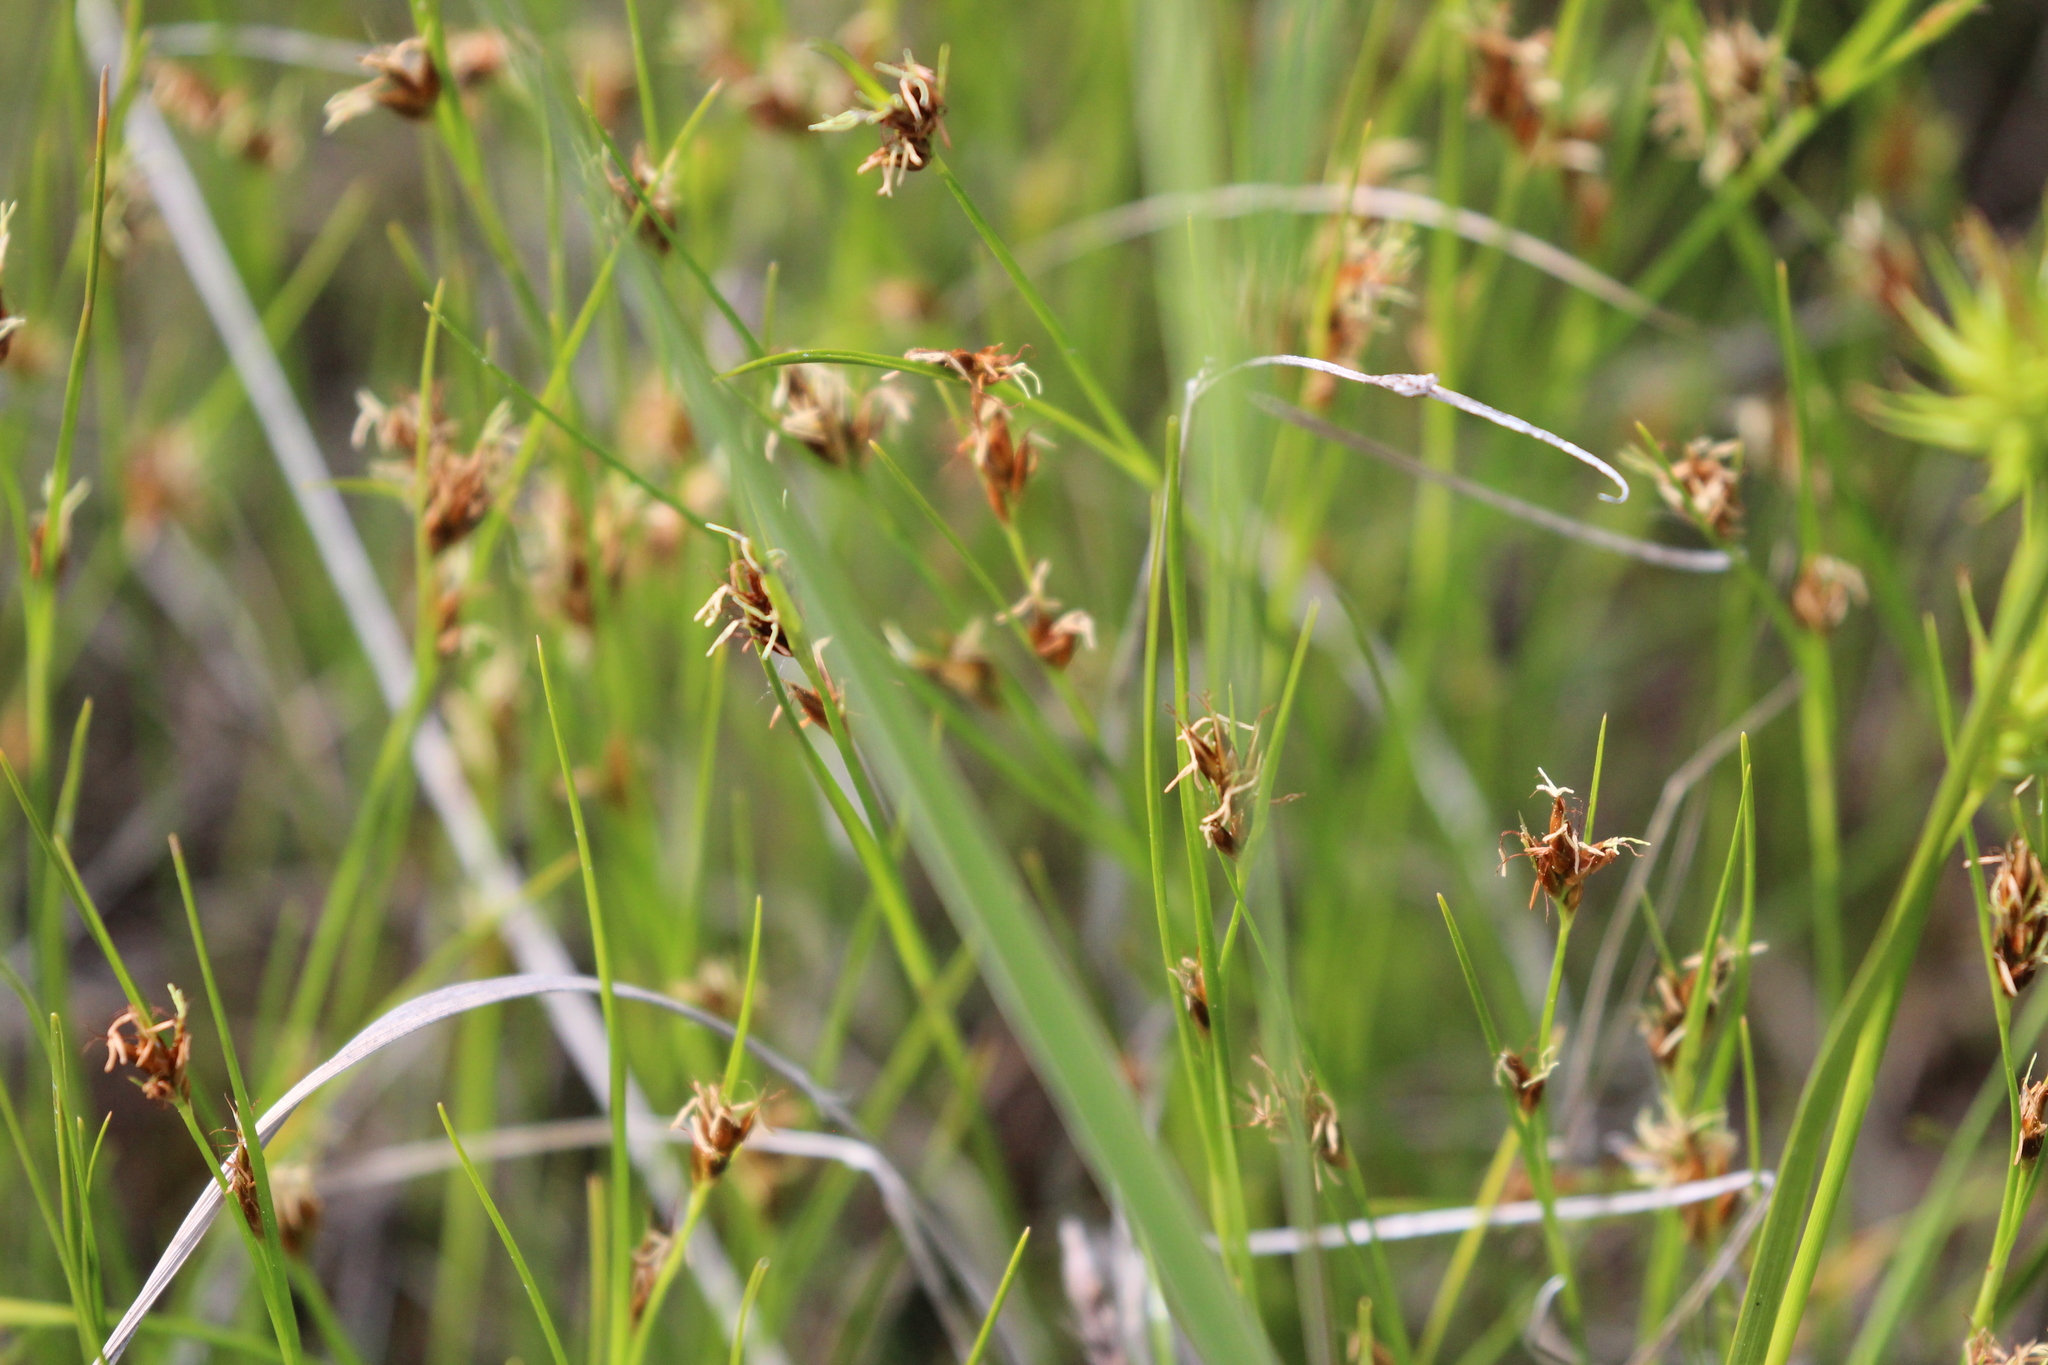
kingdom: Plantae
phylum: Tracheophyta
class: Liliopsida
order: Poales
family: Cyperaceae
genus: Rhynchospora
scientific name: Rhynchospora fusca
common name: Brown beak-sedge
